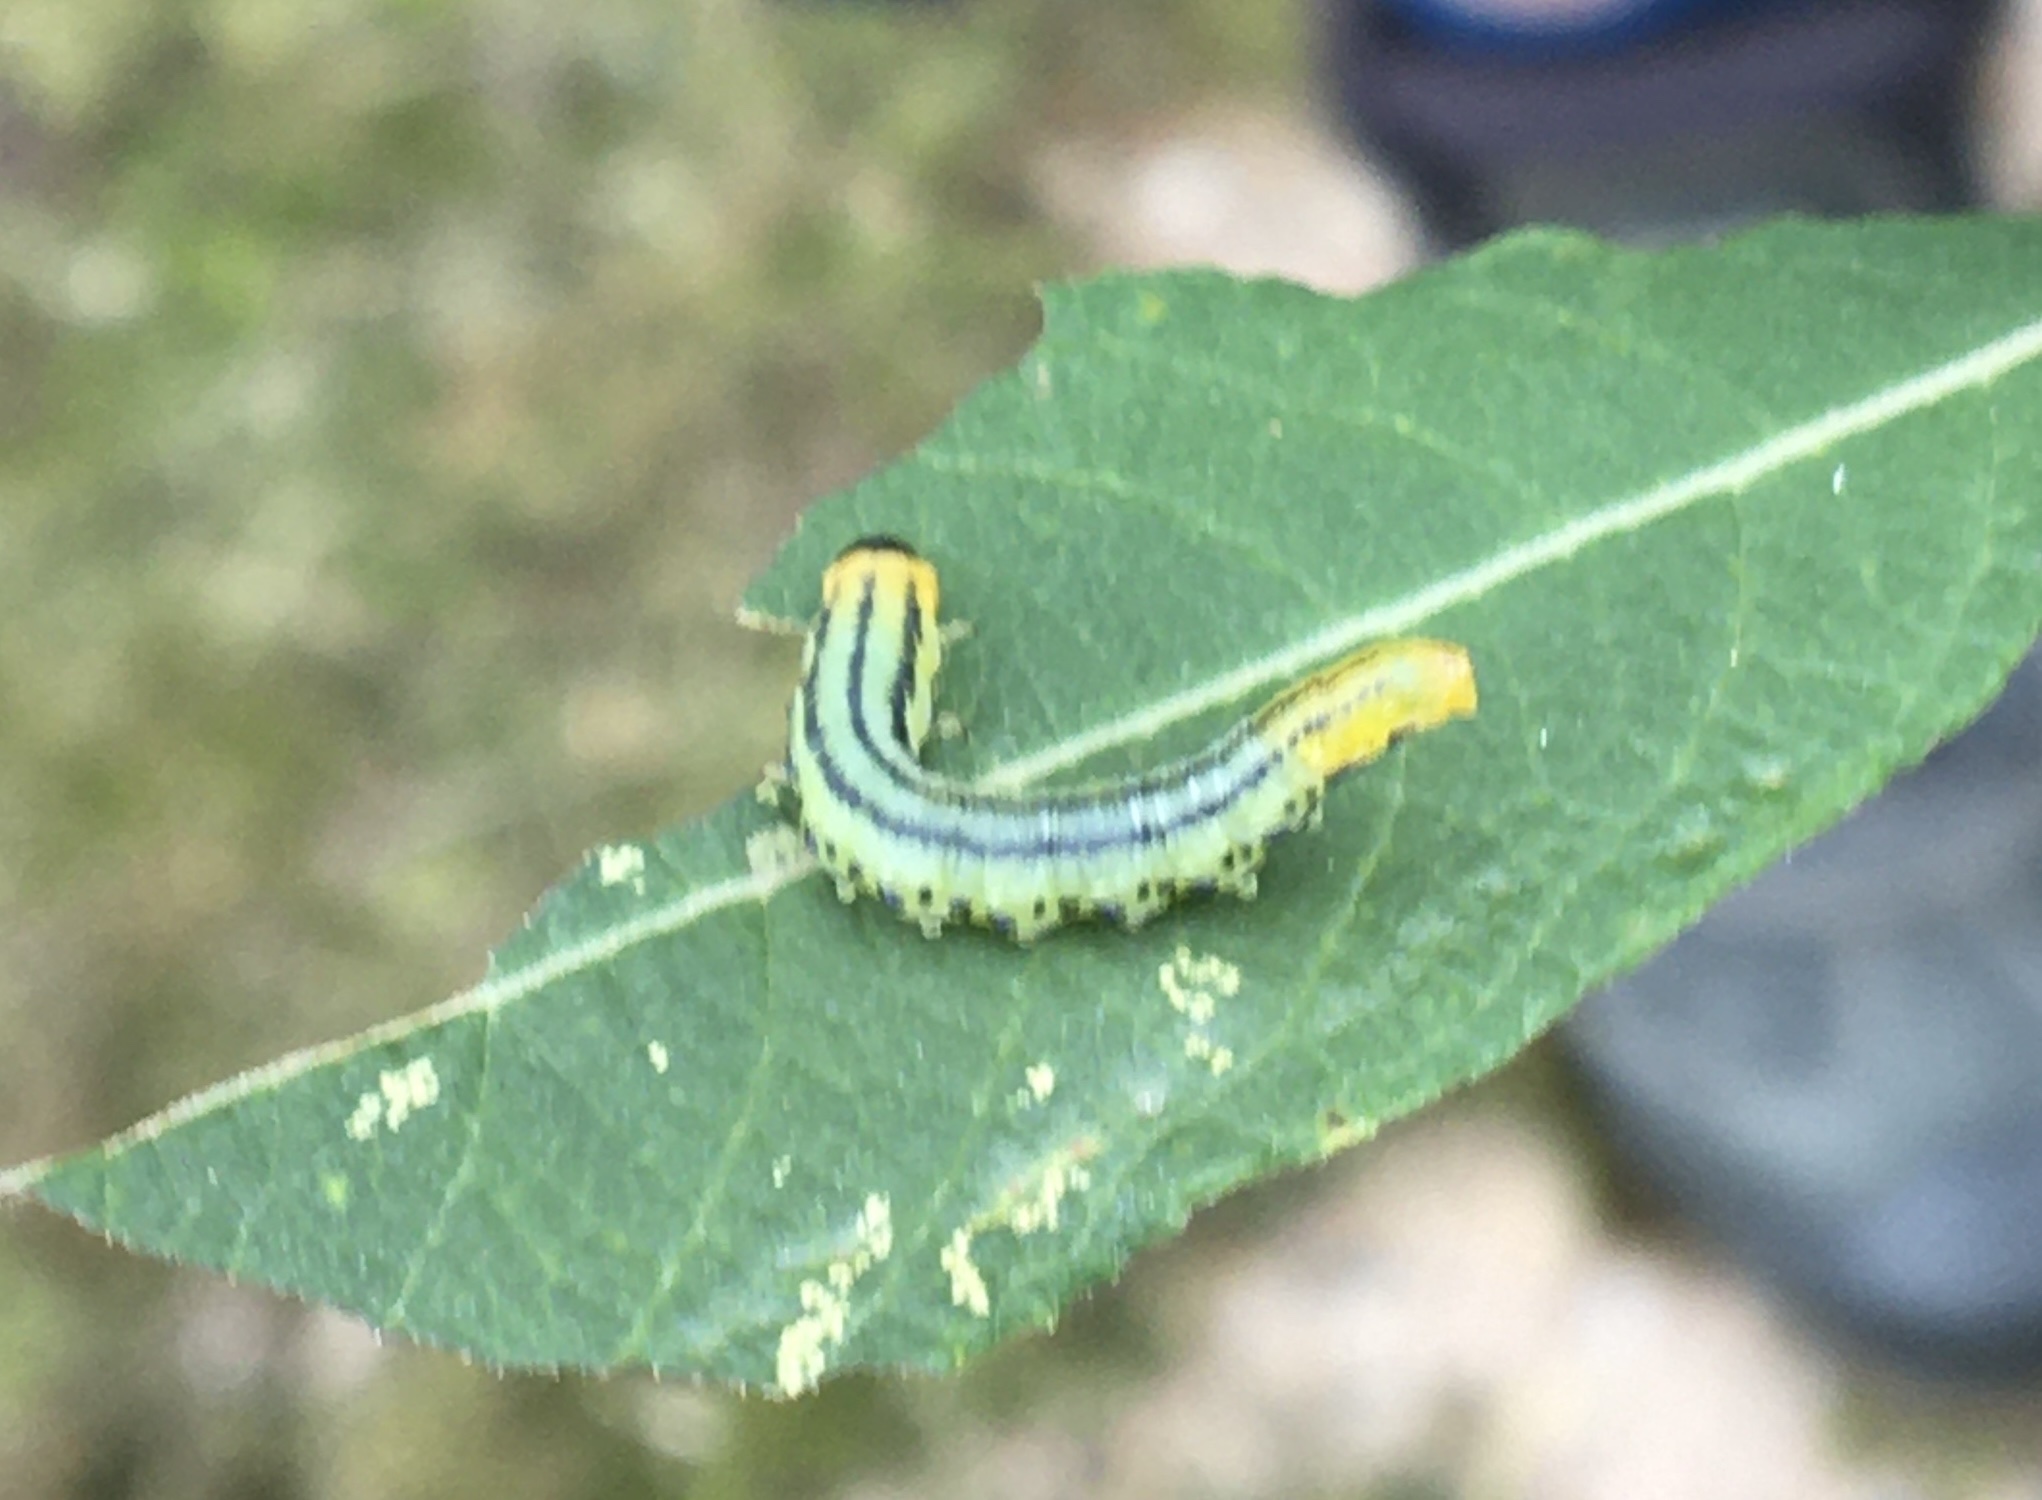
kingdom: Animalia
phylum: Arthropoda
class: Insecta
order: Hymenoptera
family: Tenthredinidae
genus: Nematus
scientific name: Nematus pavidus
